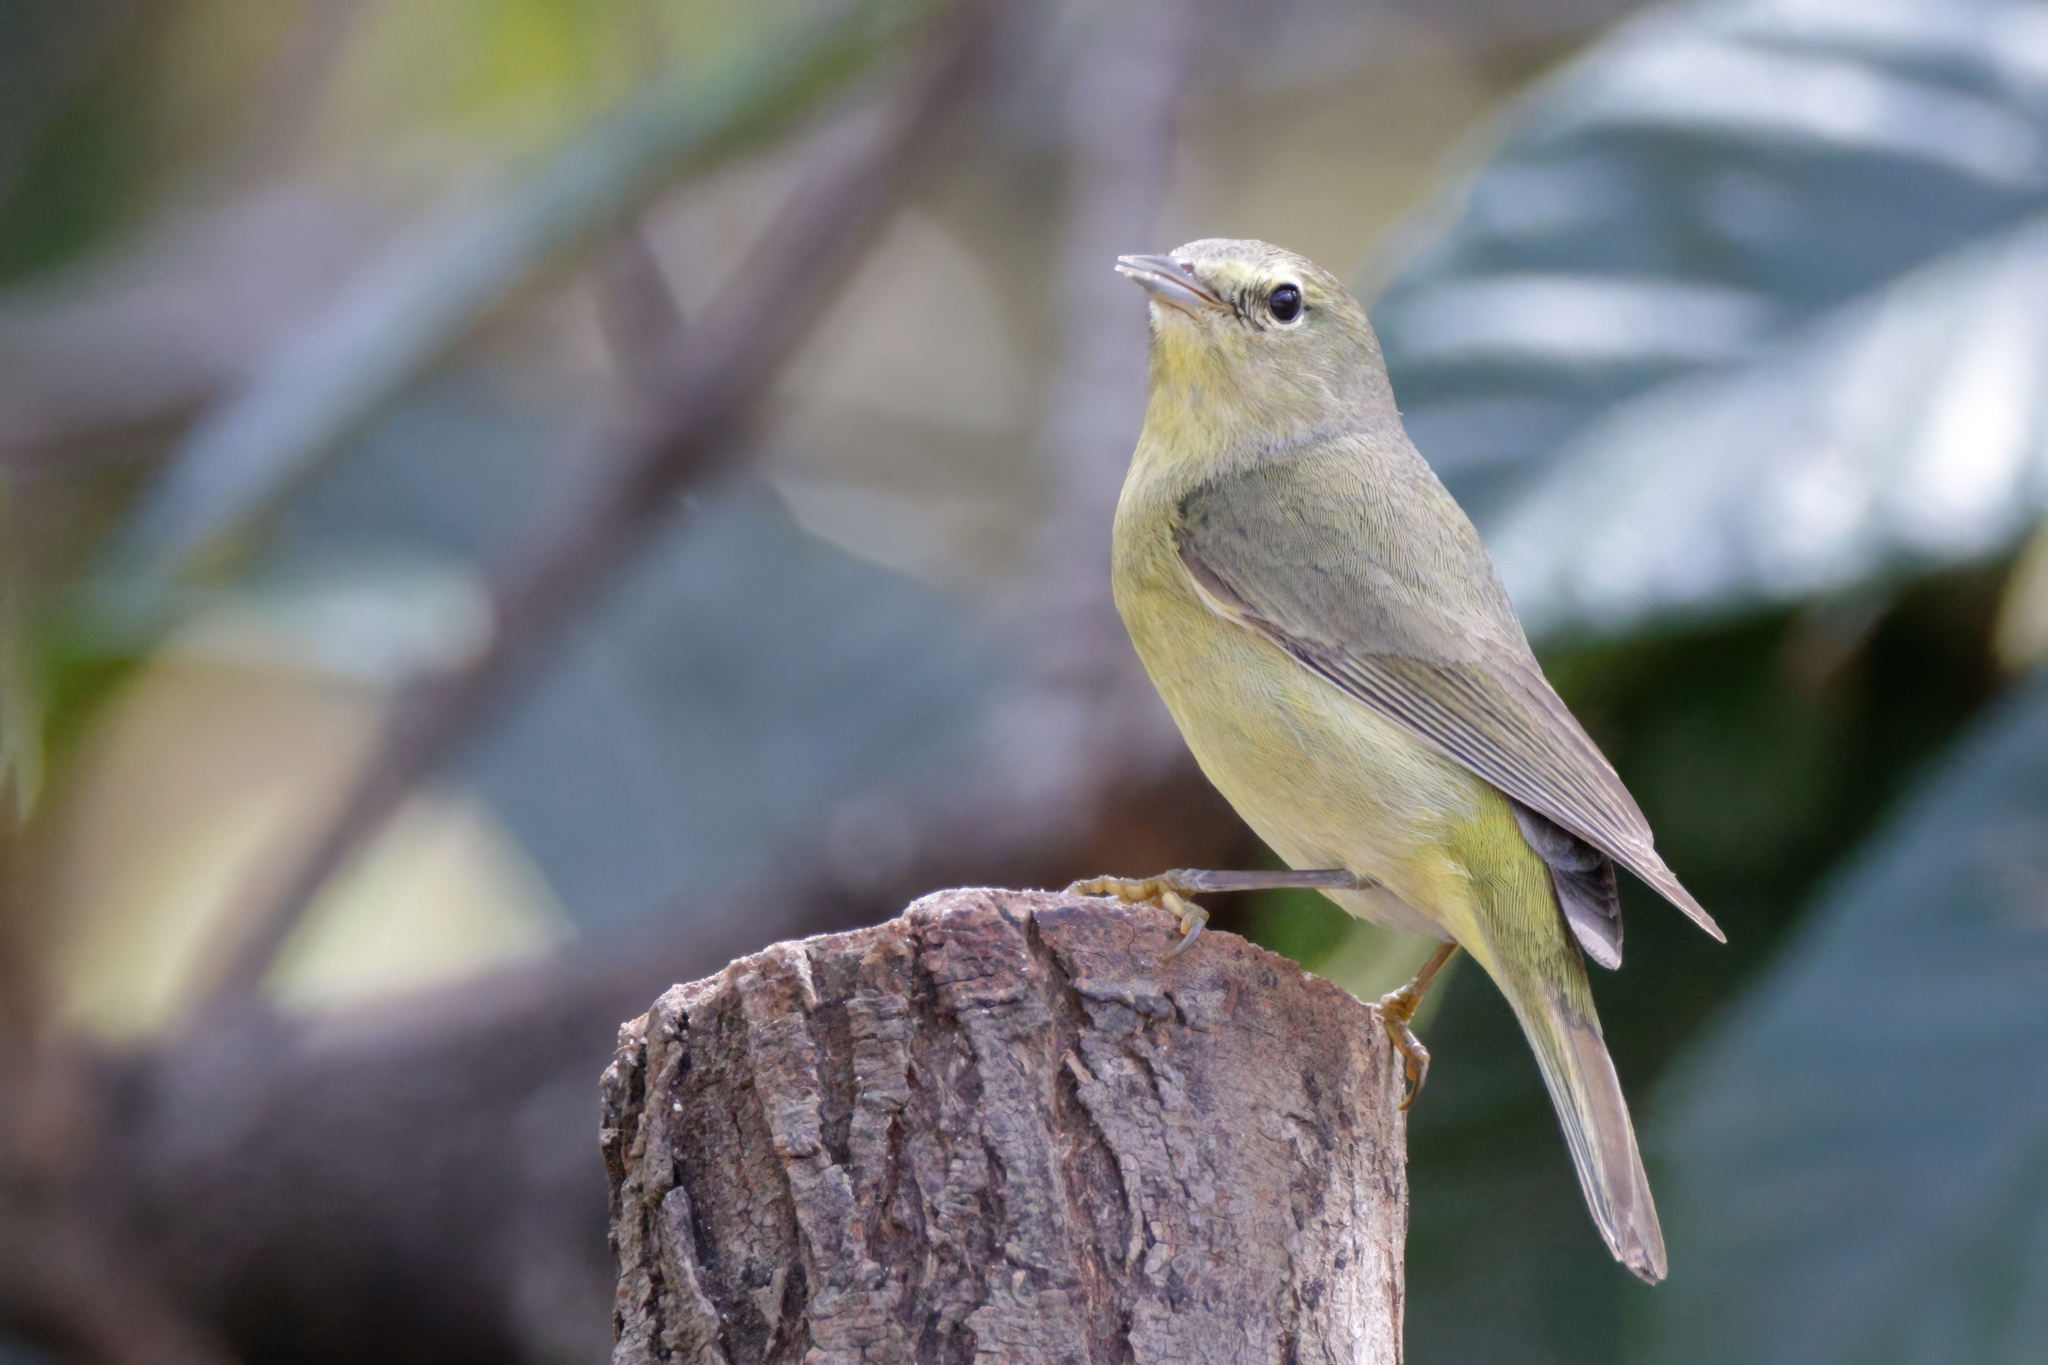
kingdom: Animalia
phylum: Chordata
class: Aves
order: Passeriformes
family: Parulidae
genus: Leiothlypis
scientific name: Leiothlypis celata
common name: Orange-crowned warbler
